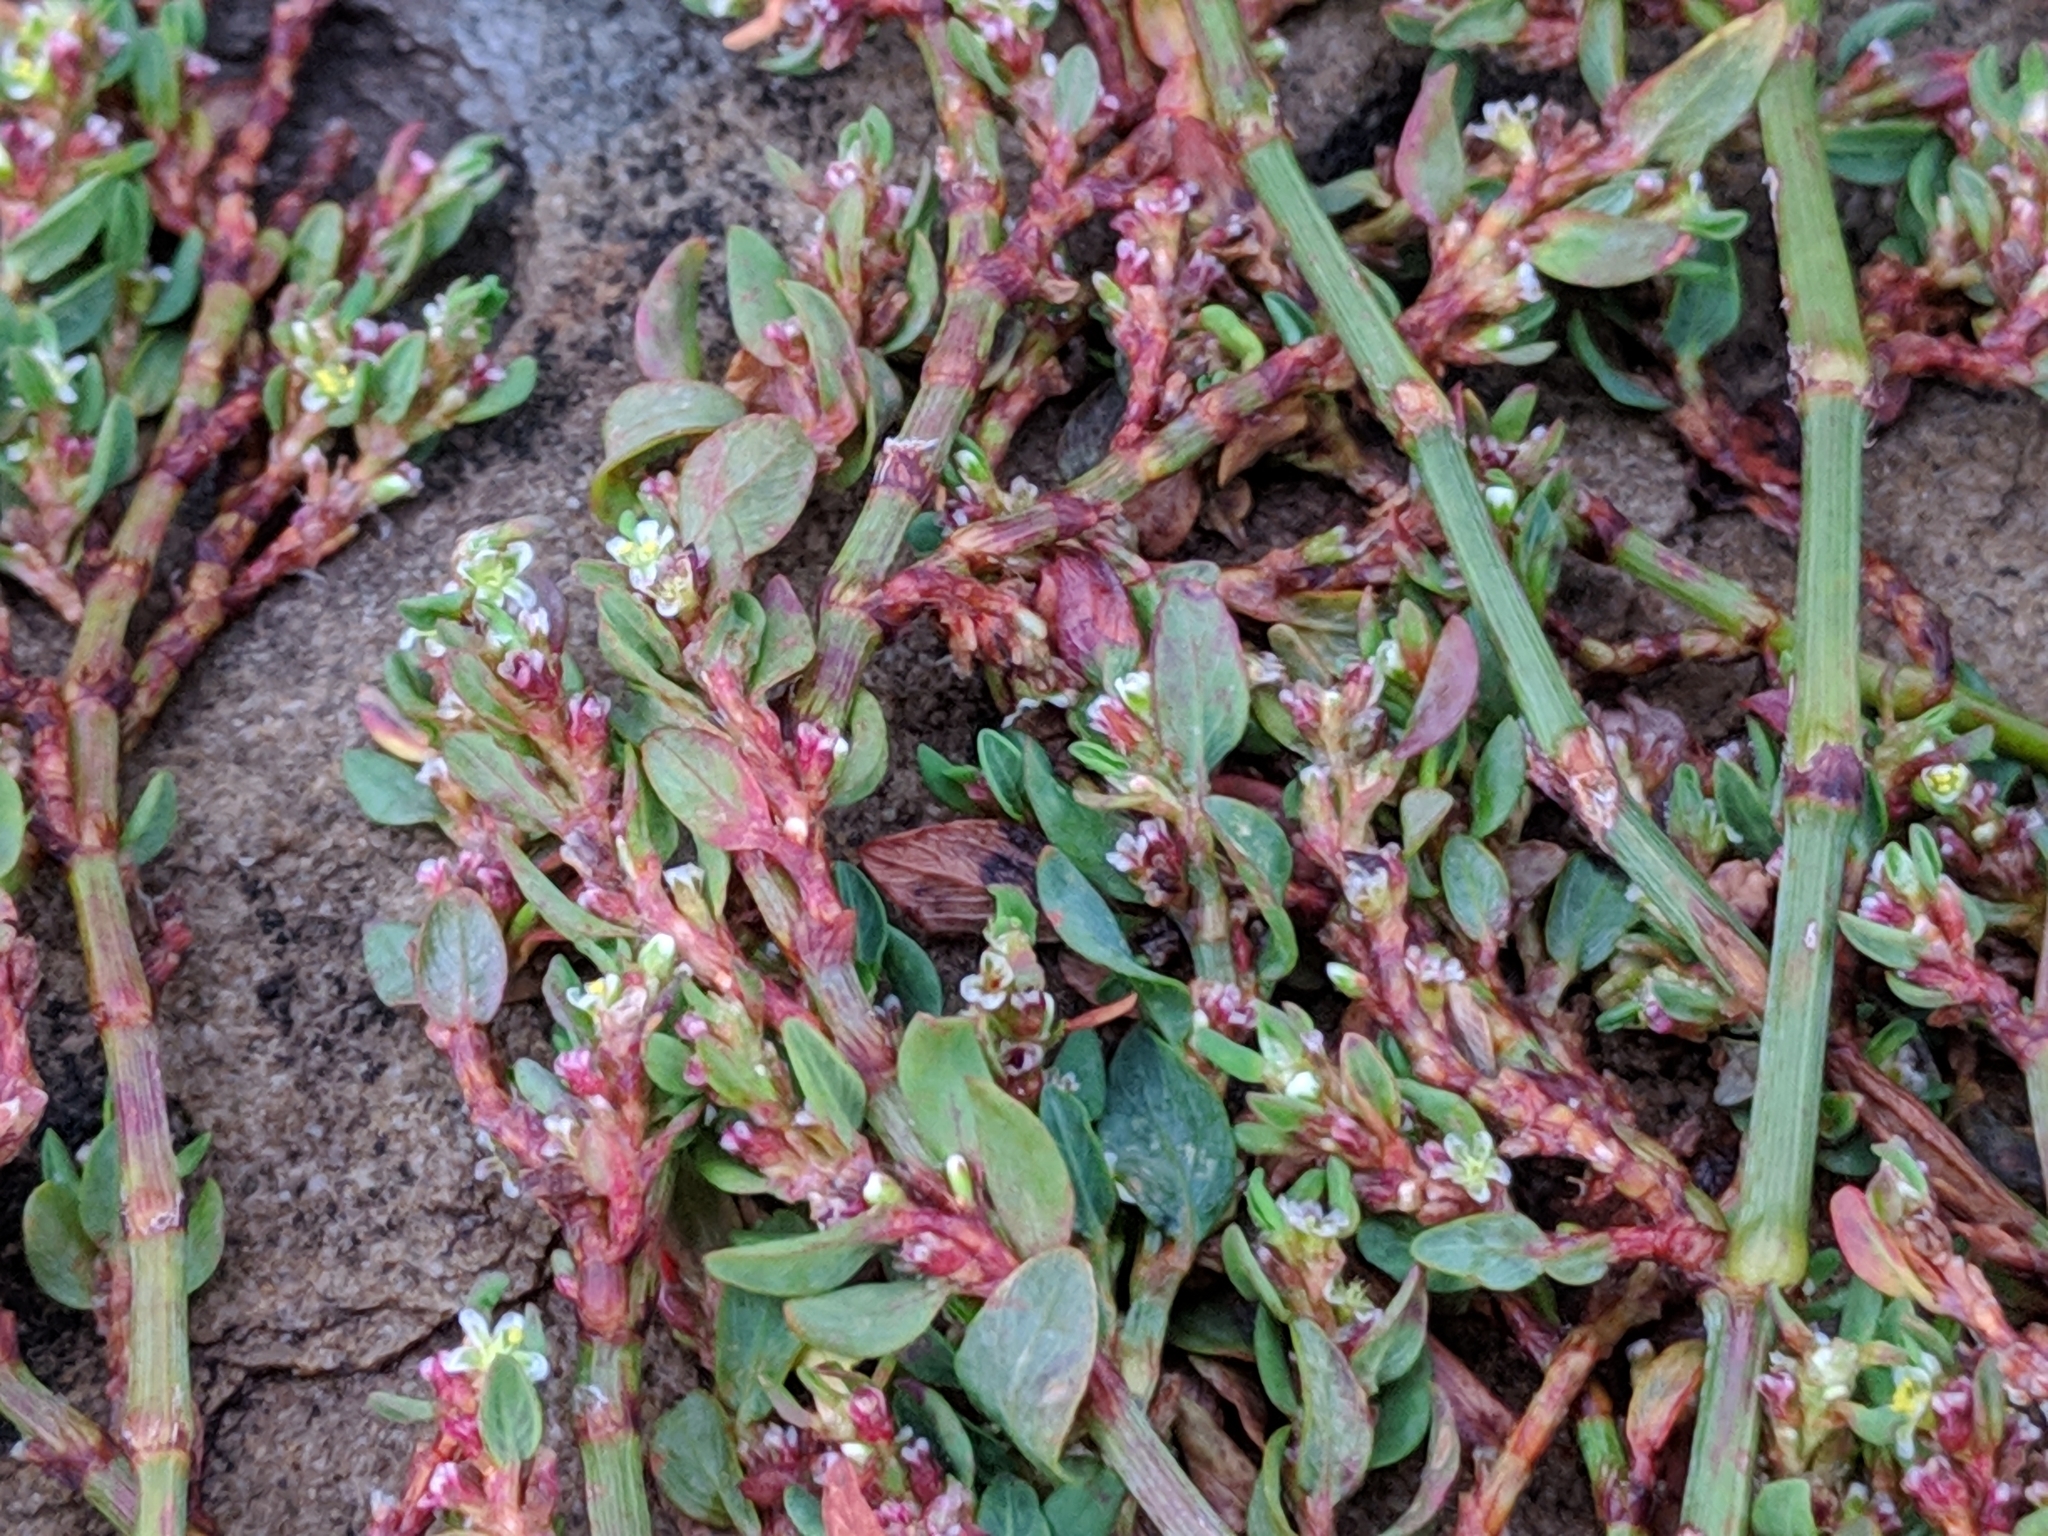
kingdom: Plantae
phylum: Tracheophyta
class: Magnoliopsida
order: Caryophyllales
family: Polygonaceae
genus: Polygonum
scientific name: Polygonum aviculare
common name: Prostrate knotweed
